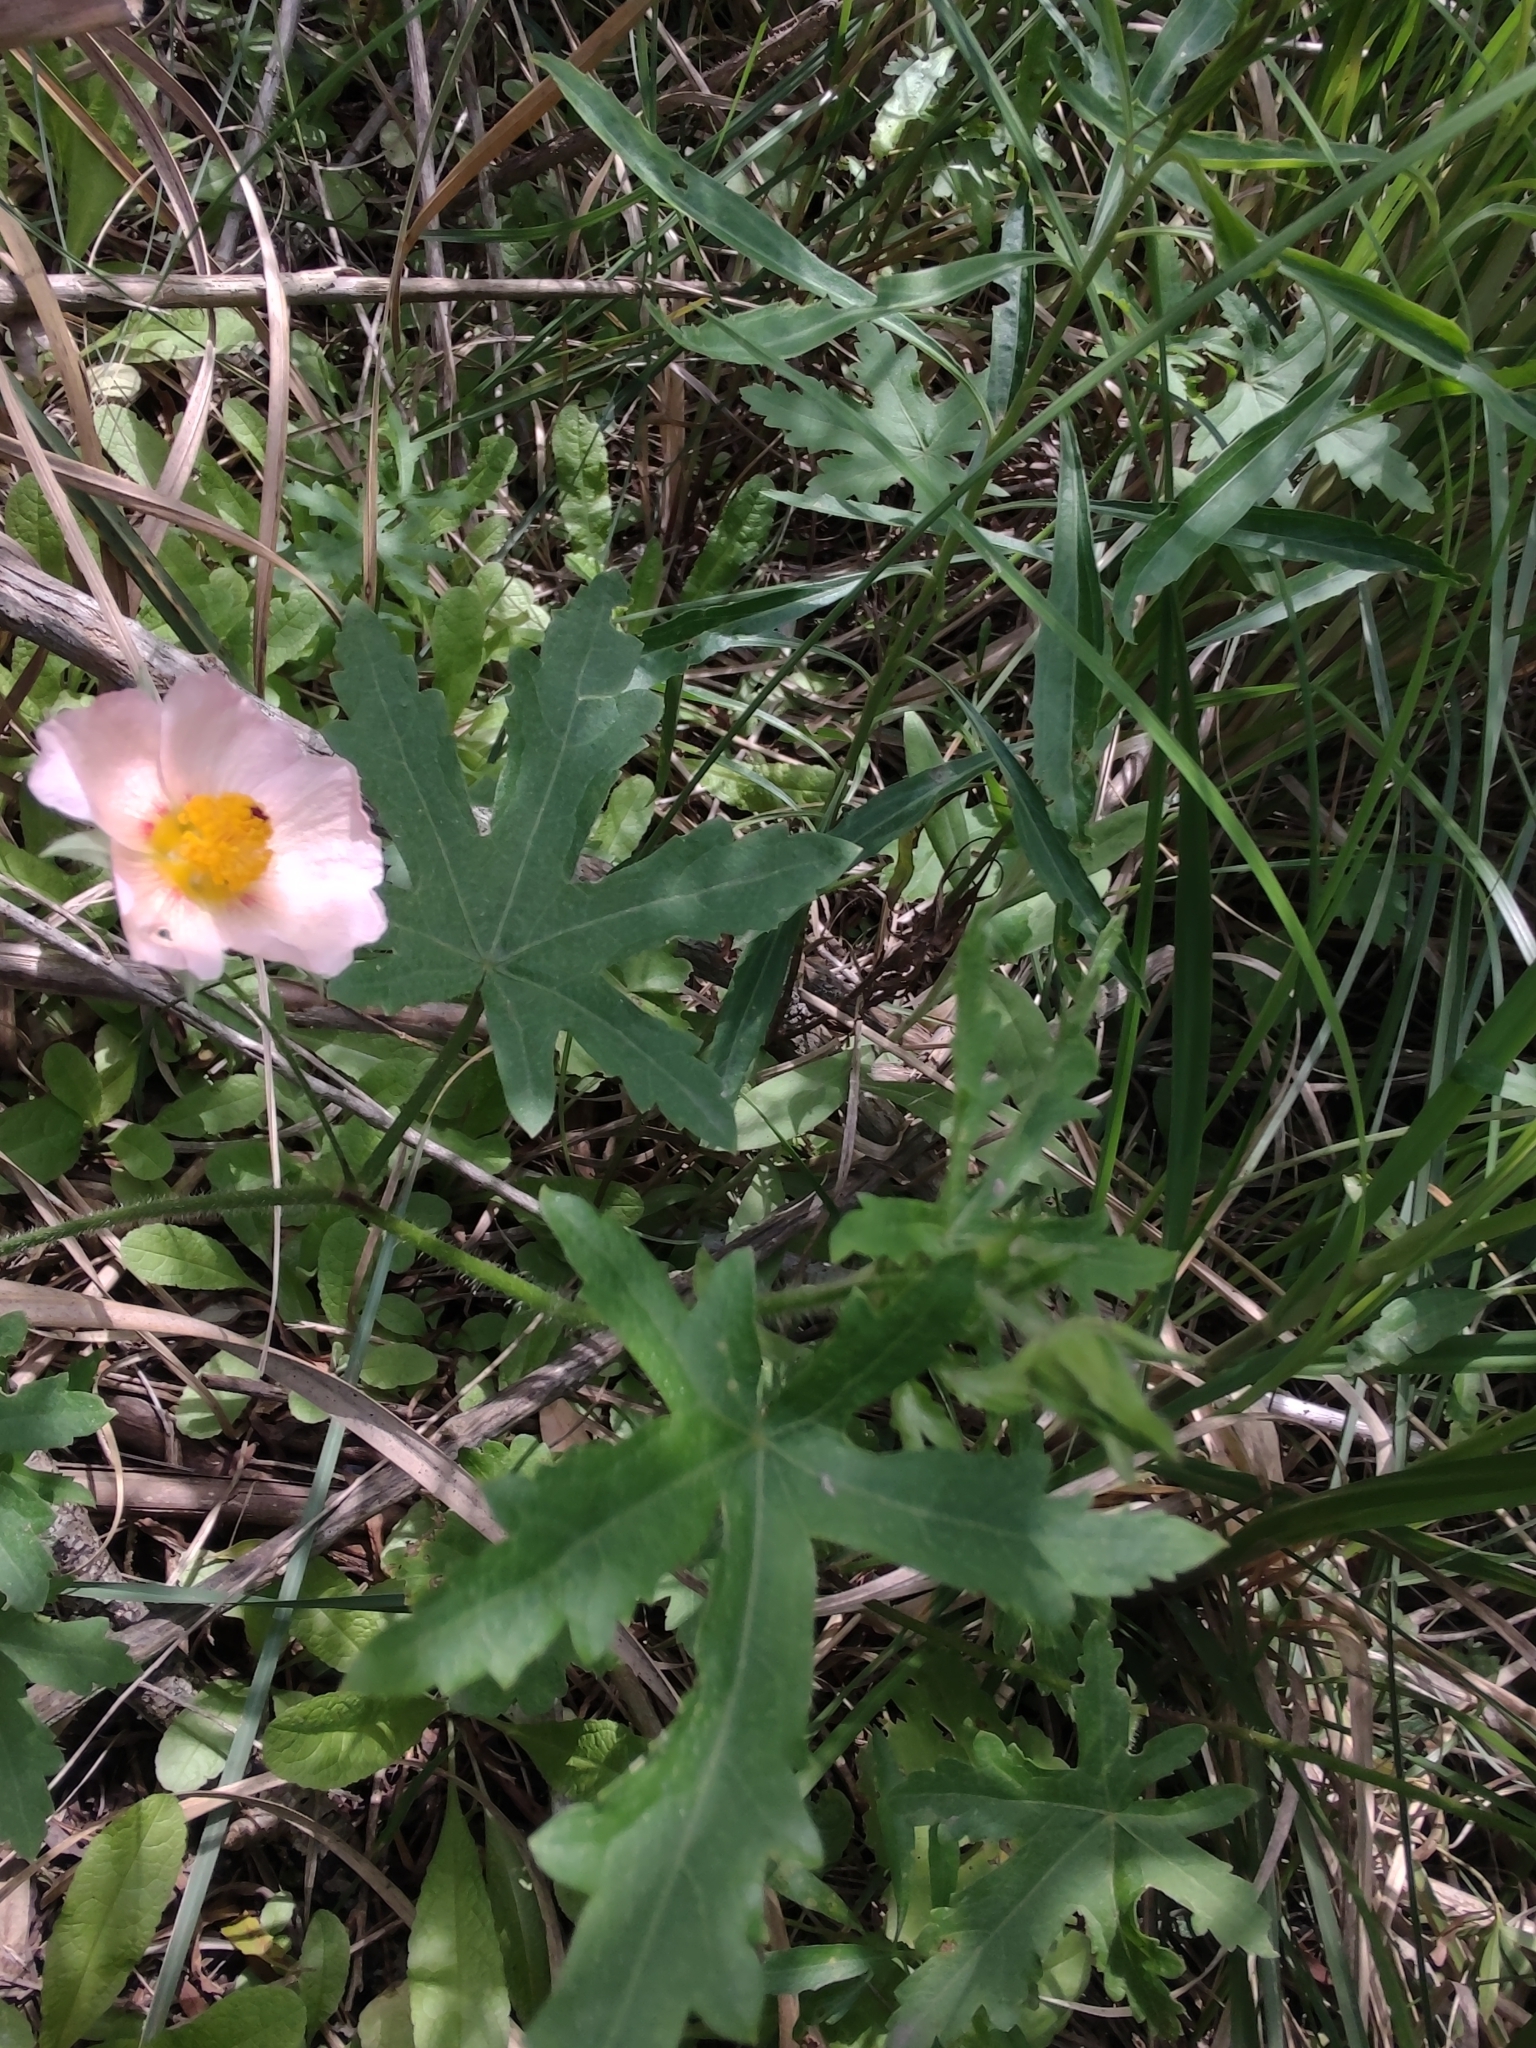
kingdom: Plantae
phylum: Tracheophyta
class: Magnoliopsida
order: Malvales
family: Malvaceae
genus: Modiolastrum
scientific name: Modiolastrum lateritium
